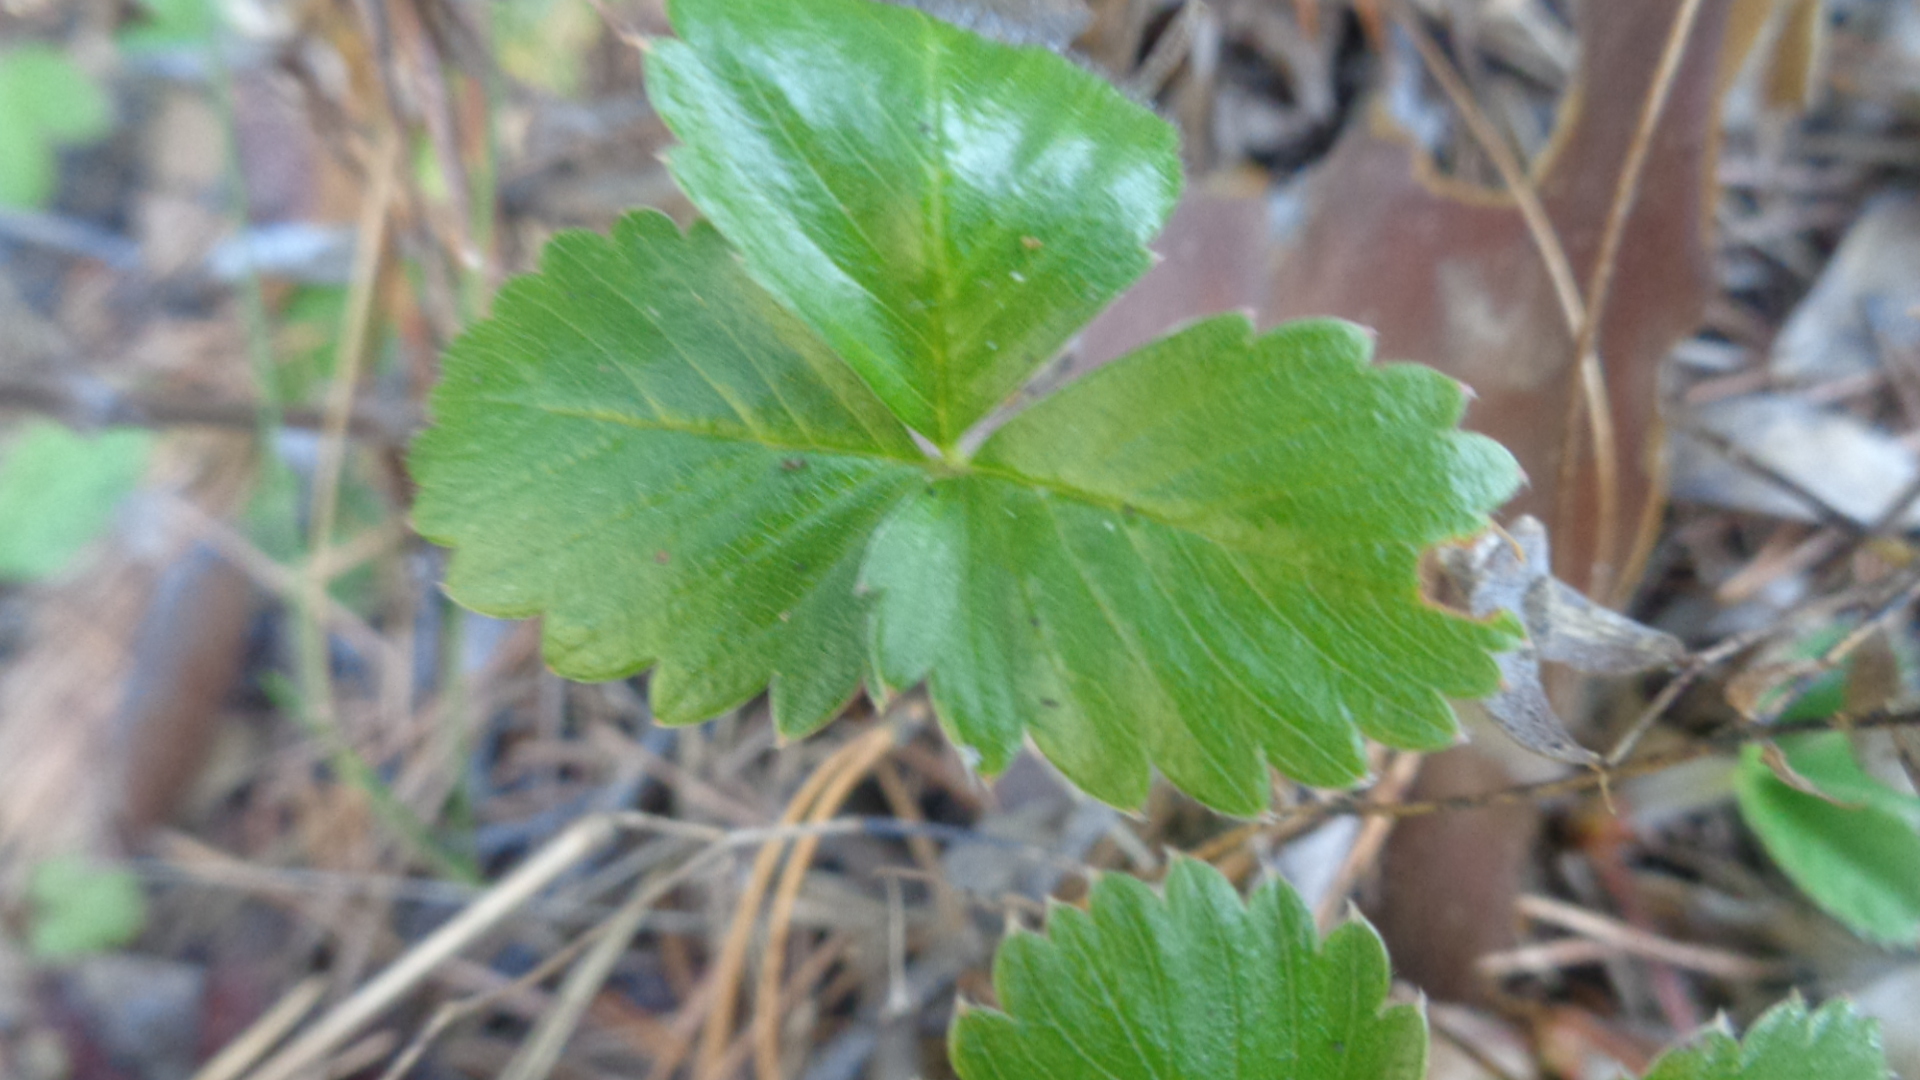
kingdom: Plantae
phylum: Tracheophyta
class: Magnoliopsida
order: Rosales
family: Rosaceae
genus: Fragaria
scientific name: Fragaria vesca
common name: Wild strawberry
